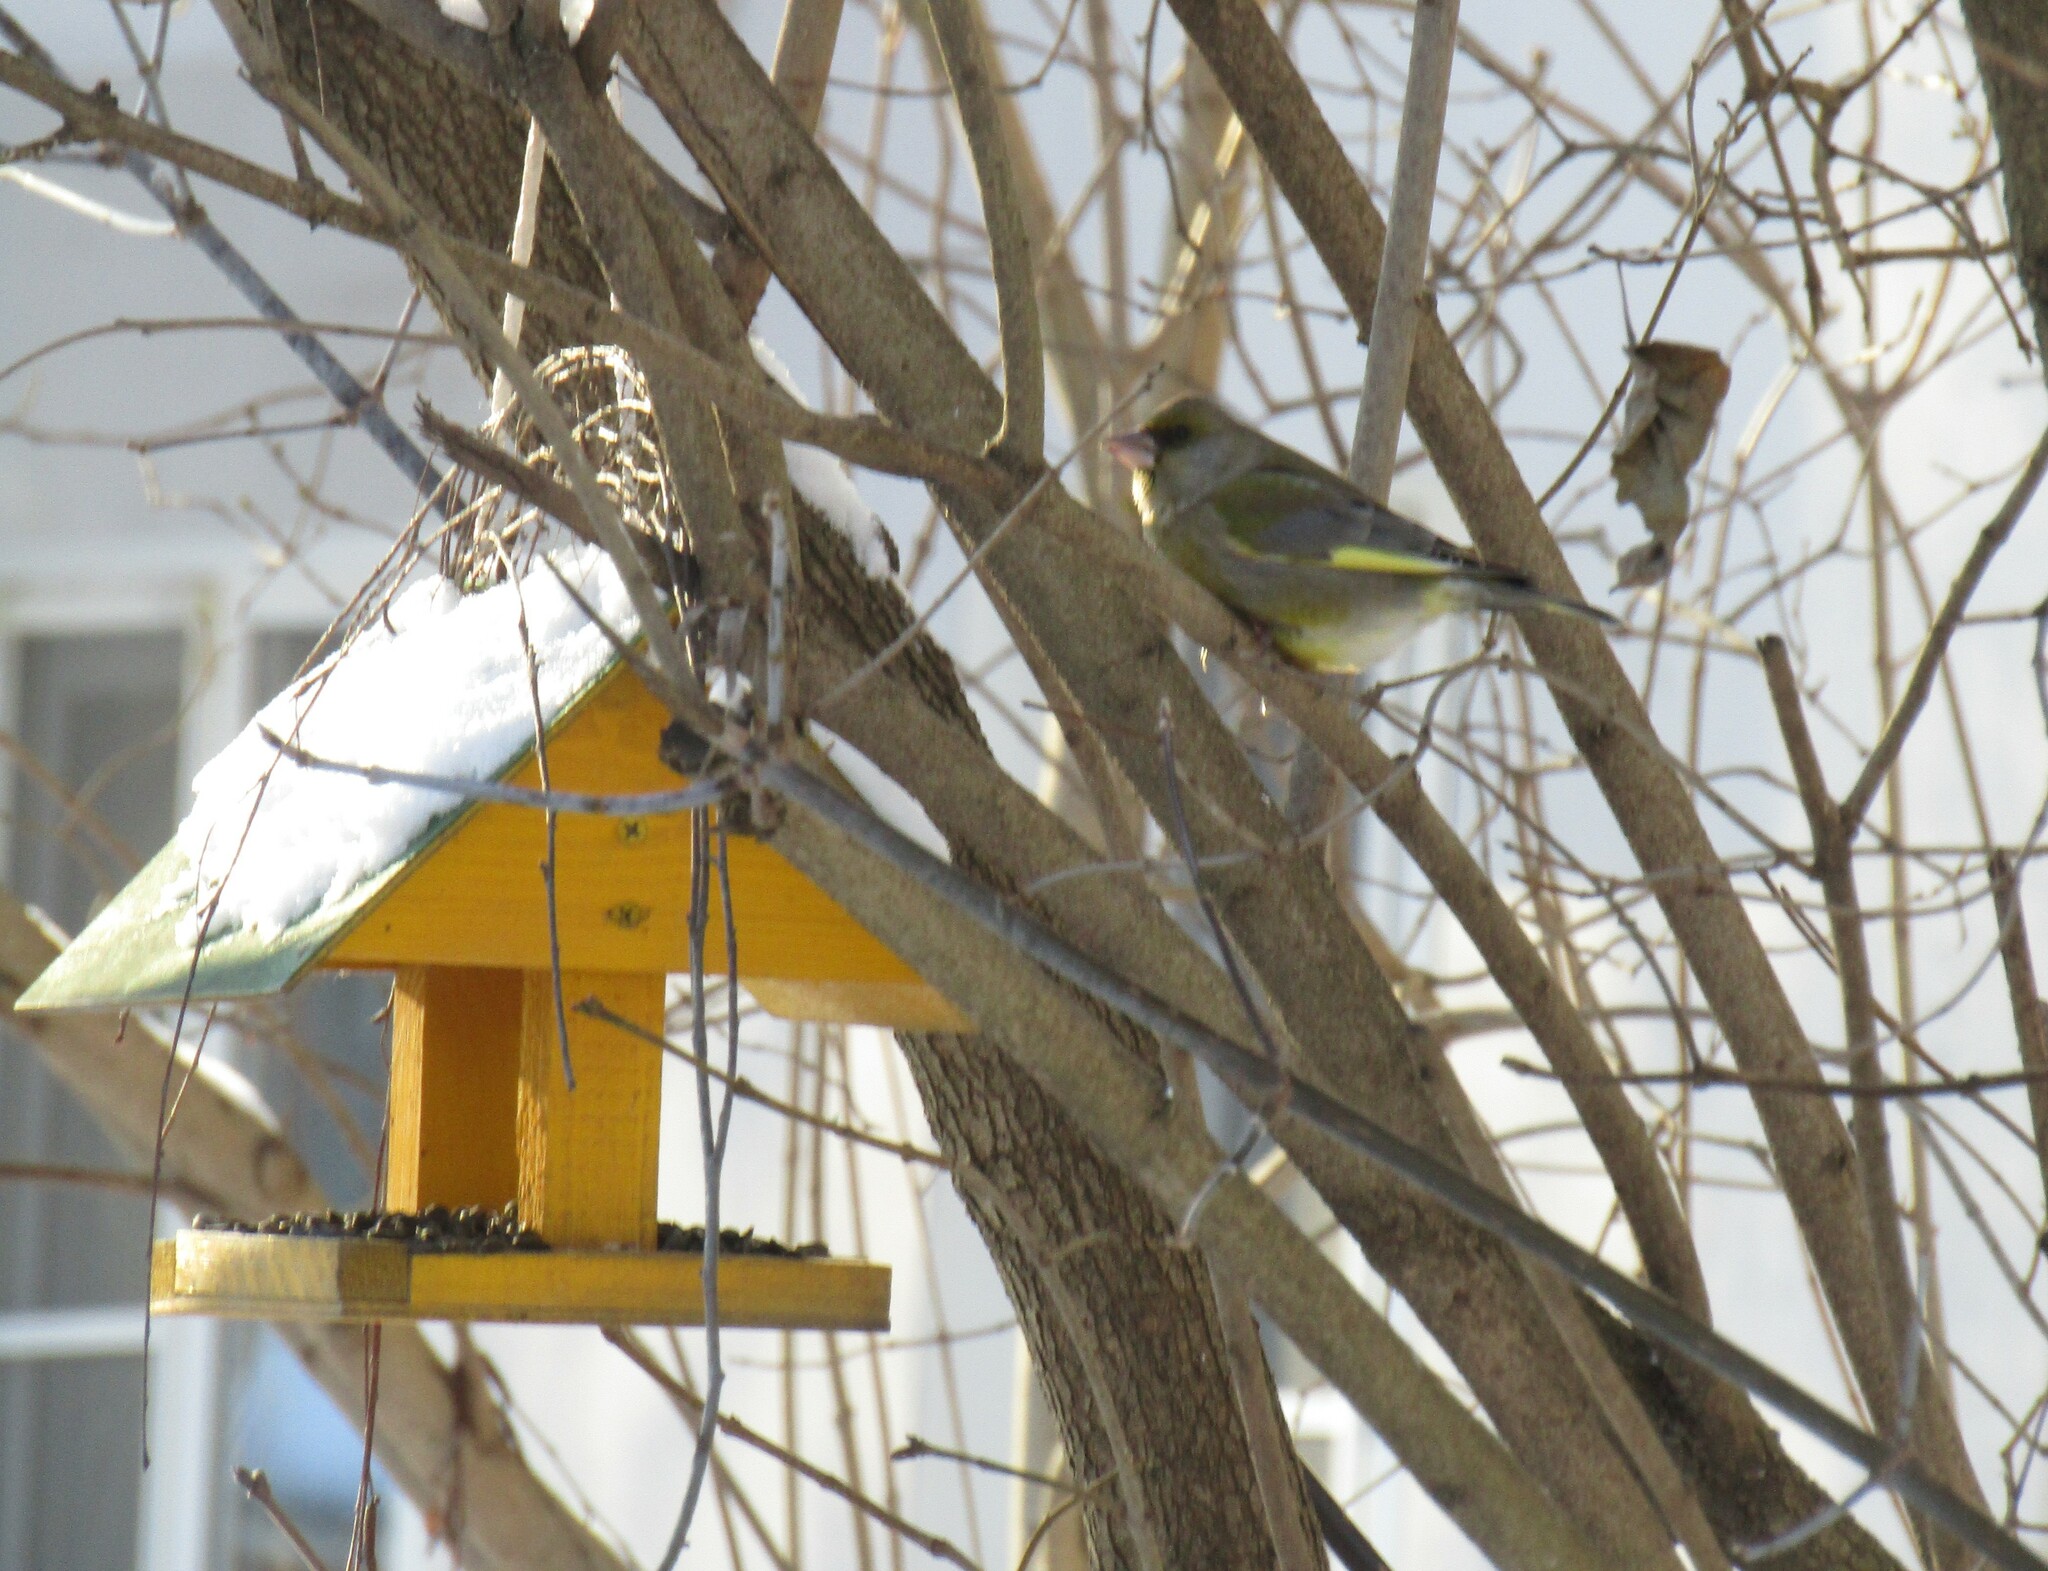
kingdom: Plantae
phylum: Tracheophyta
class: Liliopsida
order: Poales
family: Poaceae
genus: Chloris
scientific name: Chloris chloris
